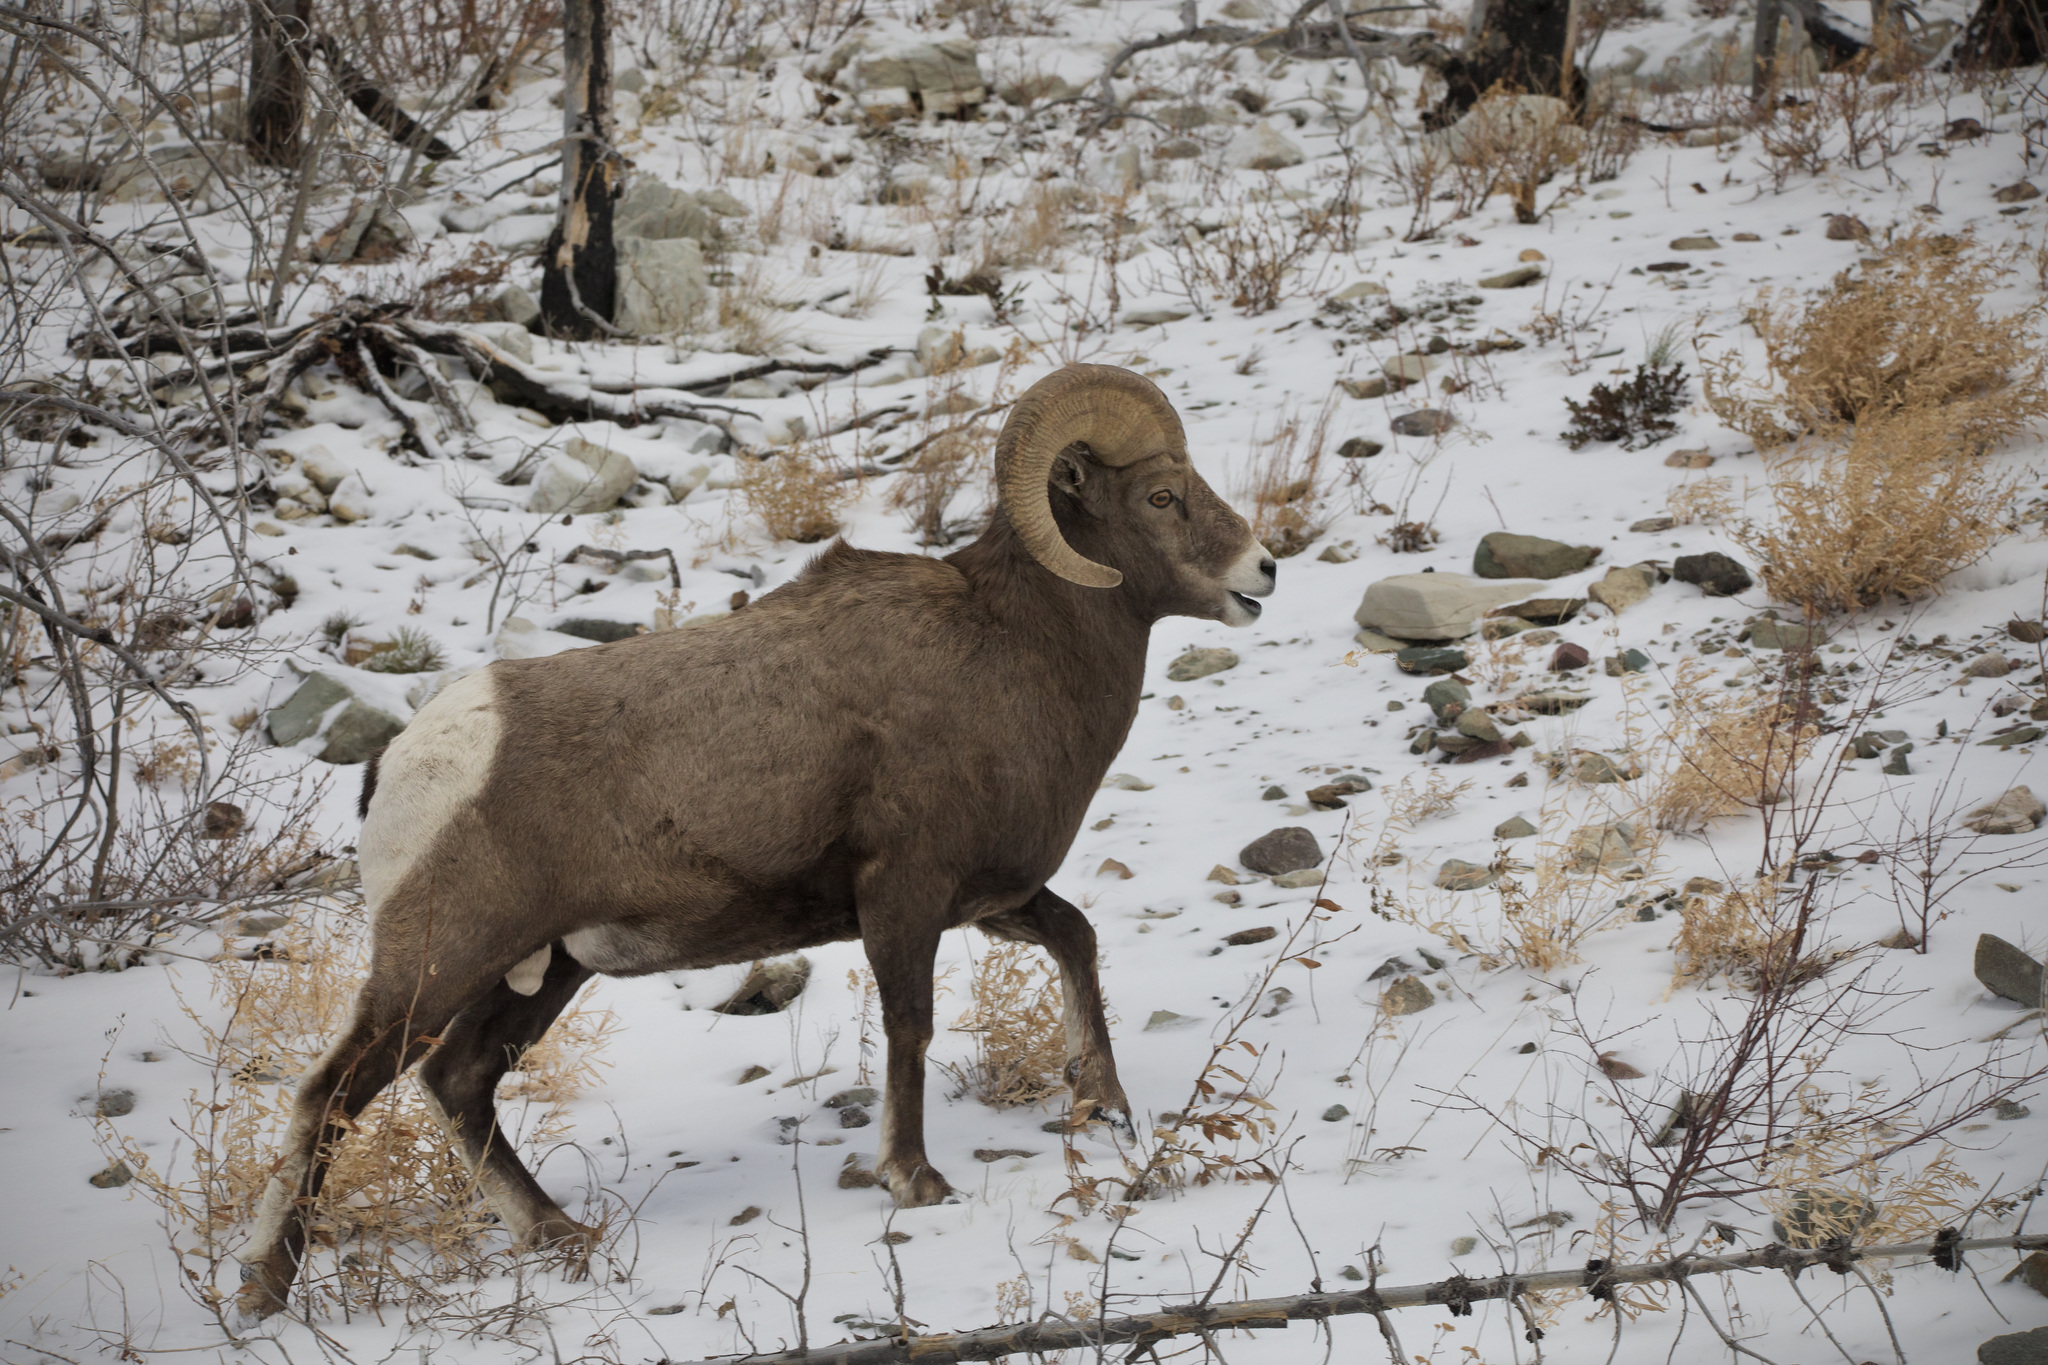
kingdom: Animalia
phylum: Chordata
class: Mammalia
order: Artiodactyla
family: Bovidae
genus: Ovis
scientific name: Ovis canadensis
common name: Bighorn sheep
